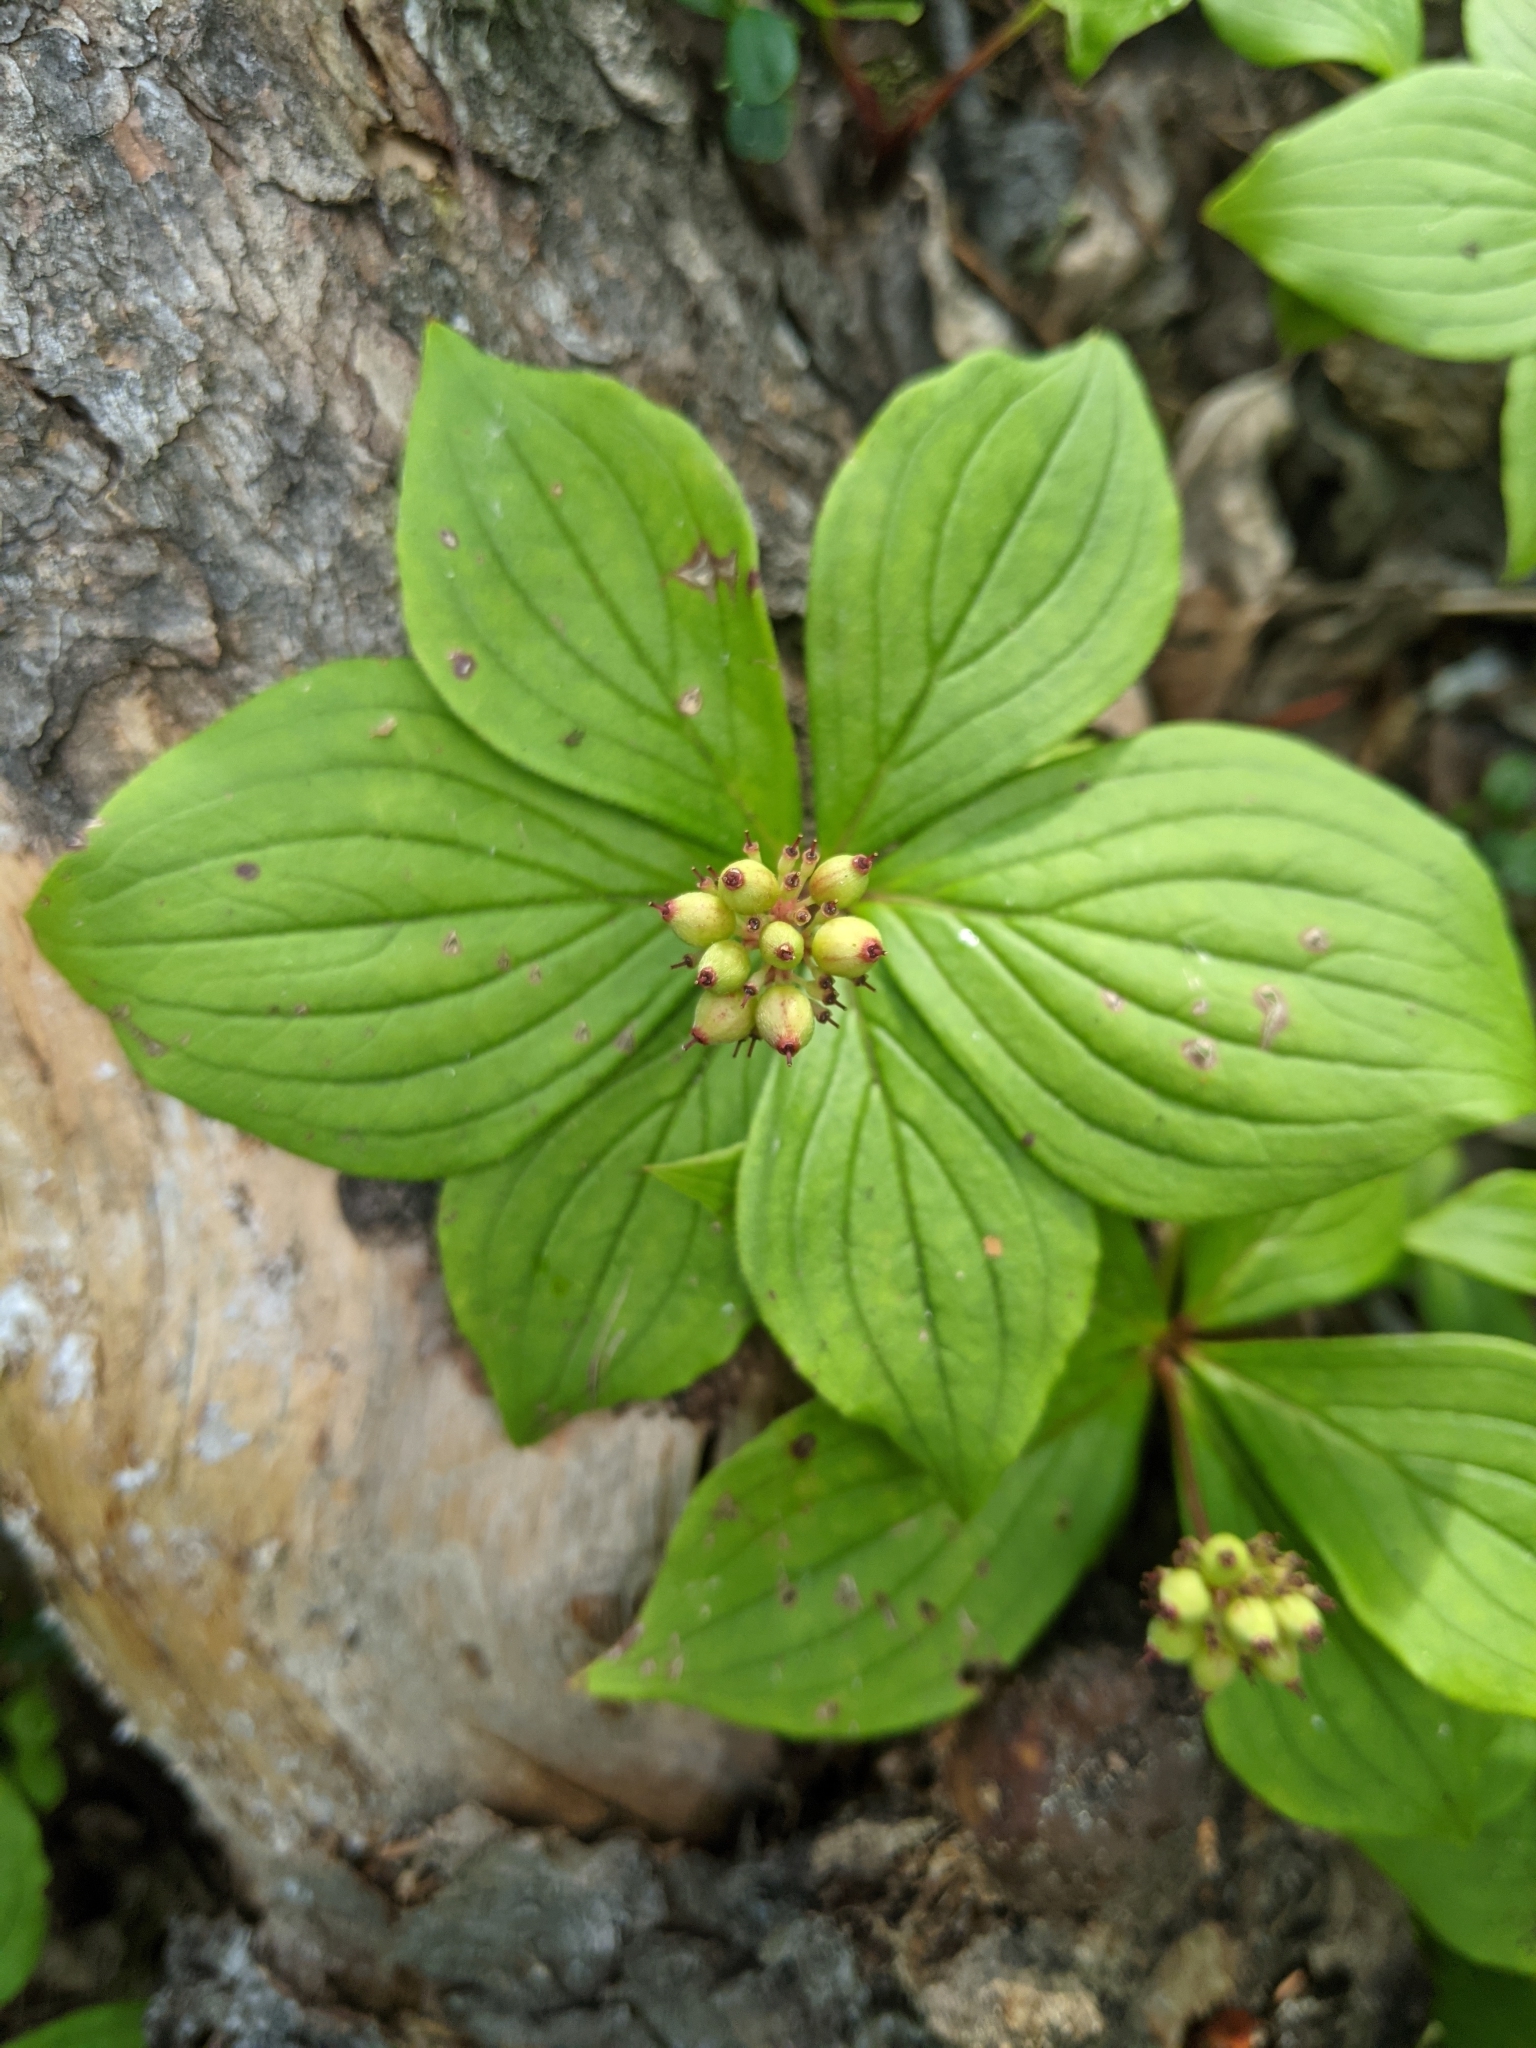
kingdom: Plantae
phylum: Tracheophyta
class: Magnoliopsida
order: Cornales
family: Cornaceae
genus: Cornus
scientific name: Cornus canadensis
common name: Creeping dogwood
